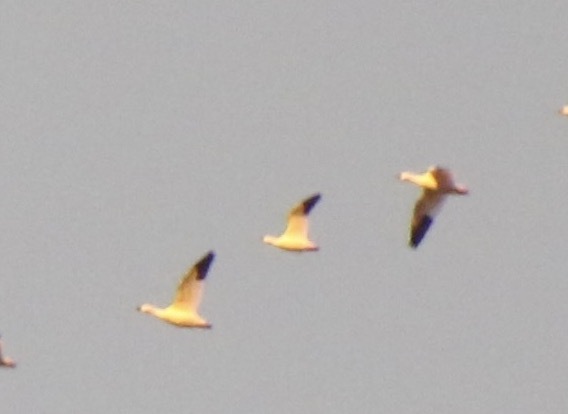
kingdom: Animalia
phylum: Chordata
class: Aves
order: Anseriformes
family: Anatidae
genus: Anser
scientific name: Anser rossii
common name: Ross's goose
